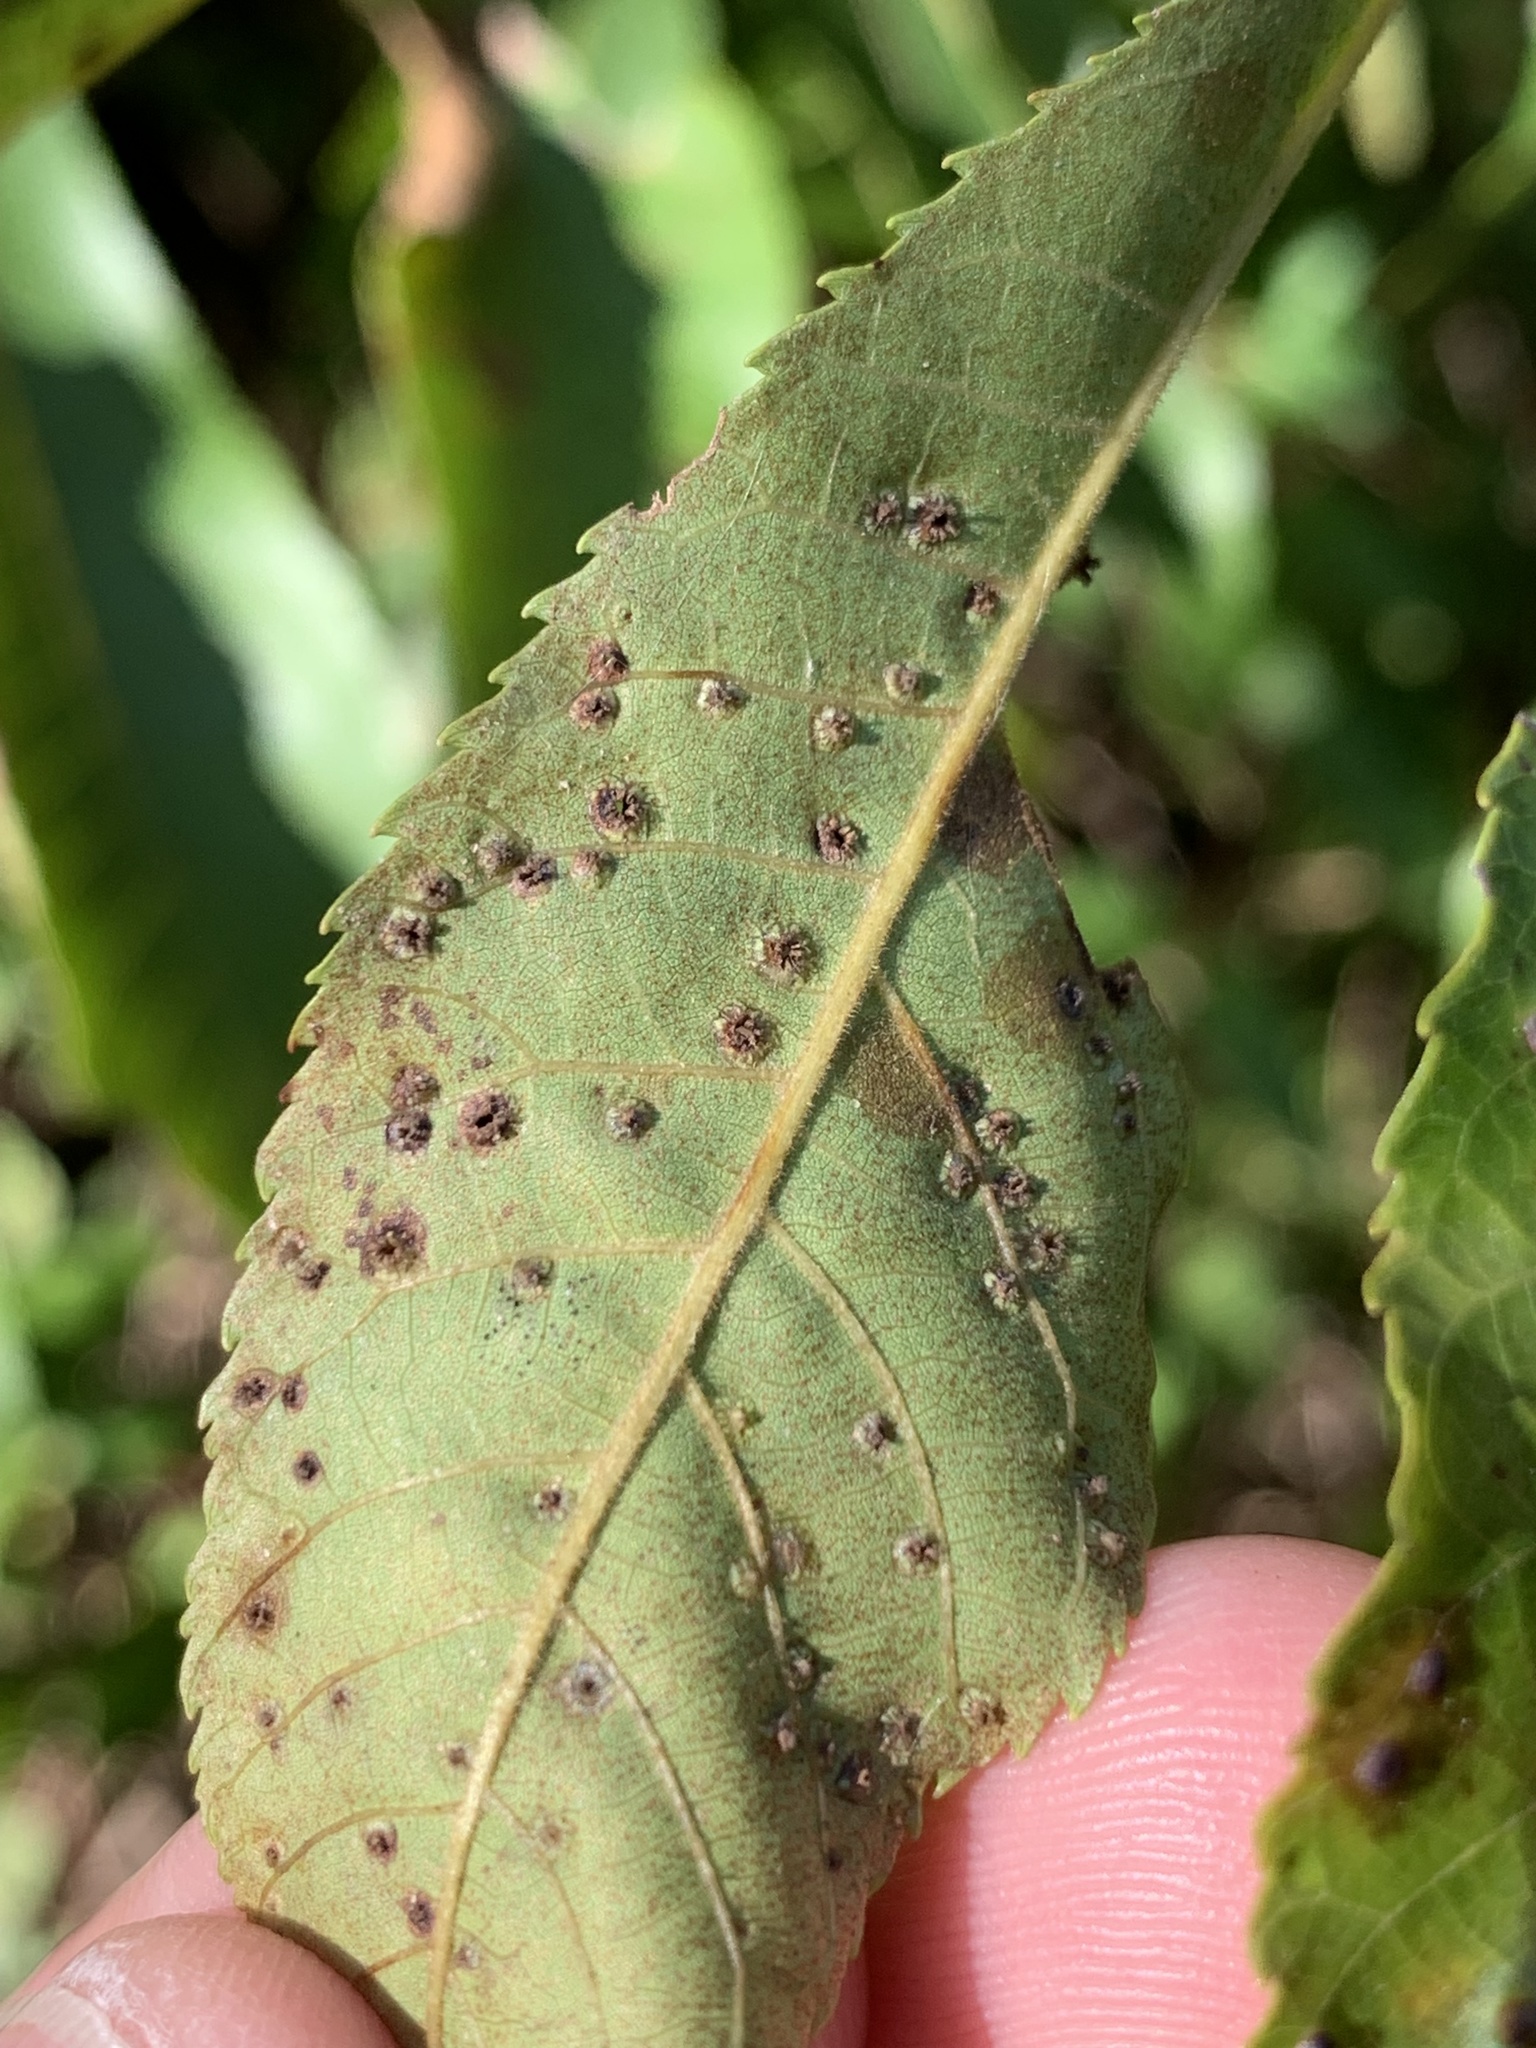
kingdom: Animalia
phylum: Arthropoda
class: Insecta
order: Hemiptera
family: Phylloxeridae
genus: Phylloxera
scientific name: Phylloxera caryae-semen
